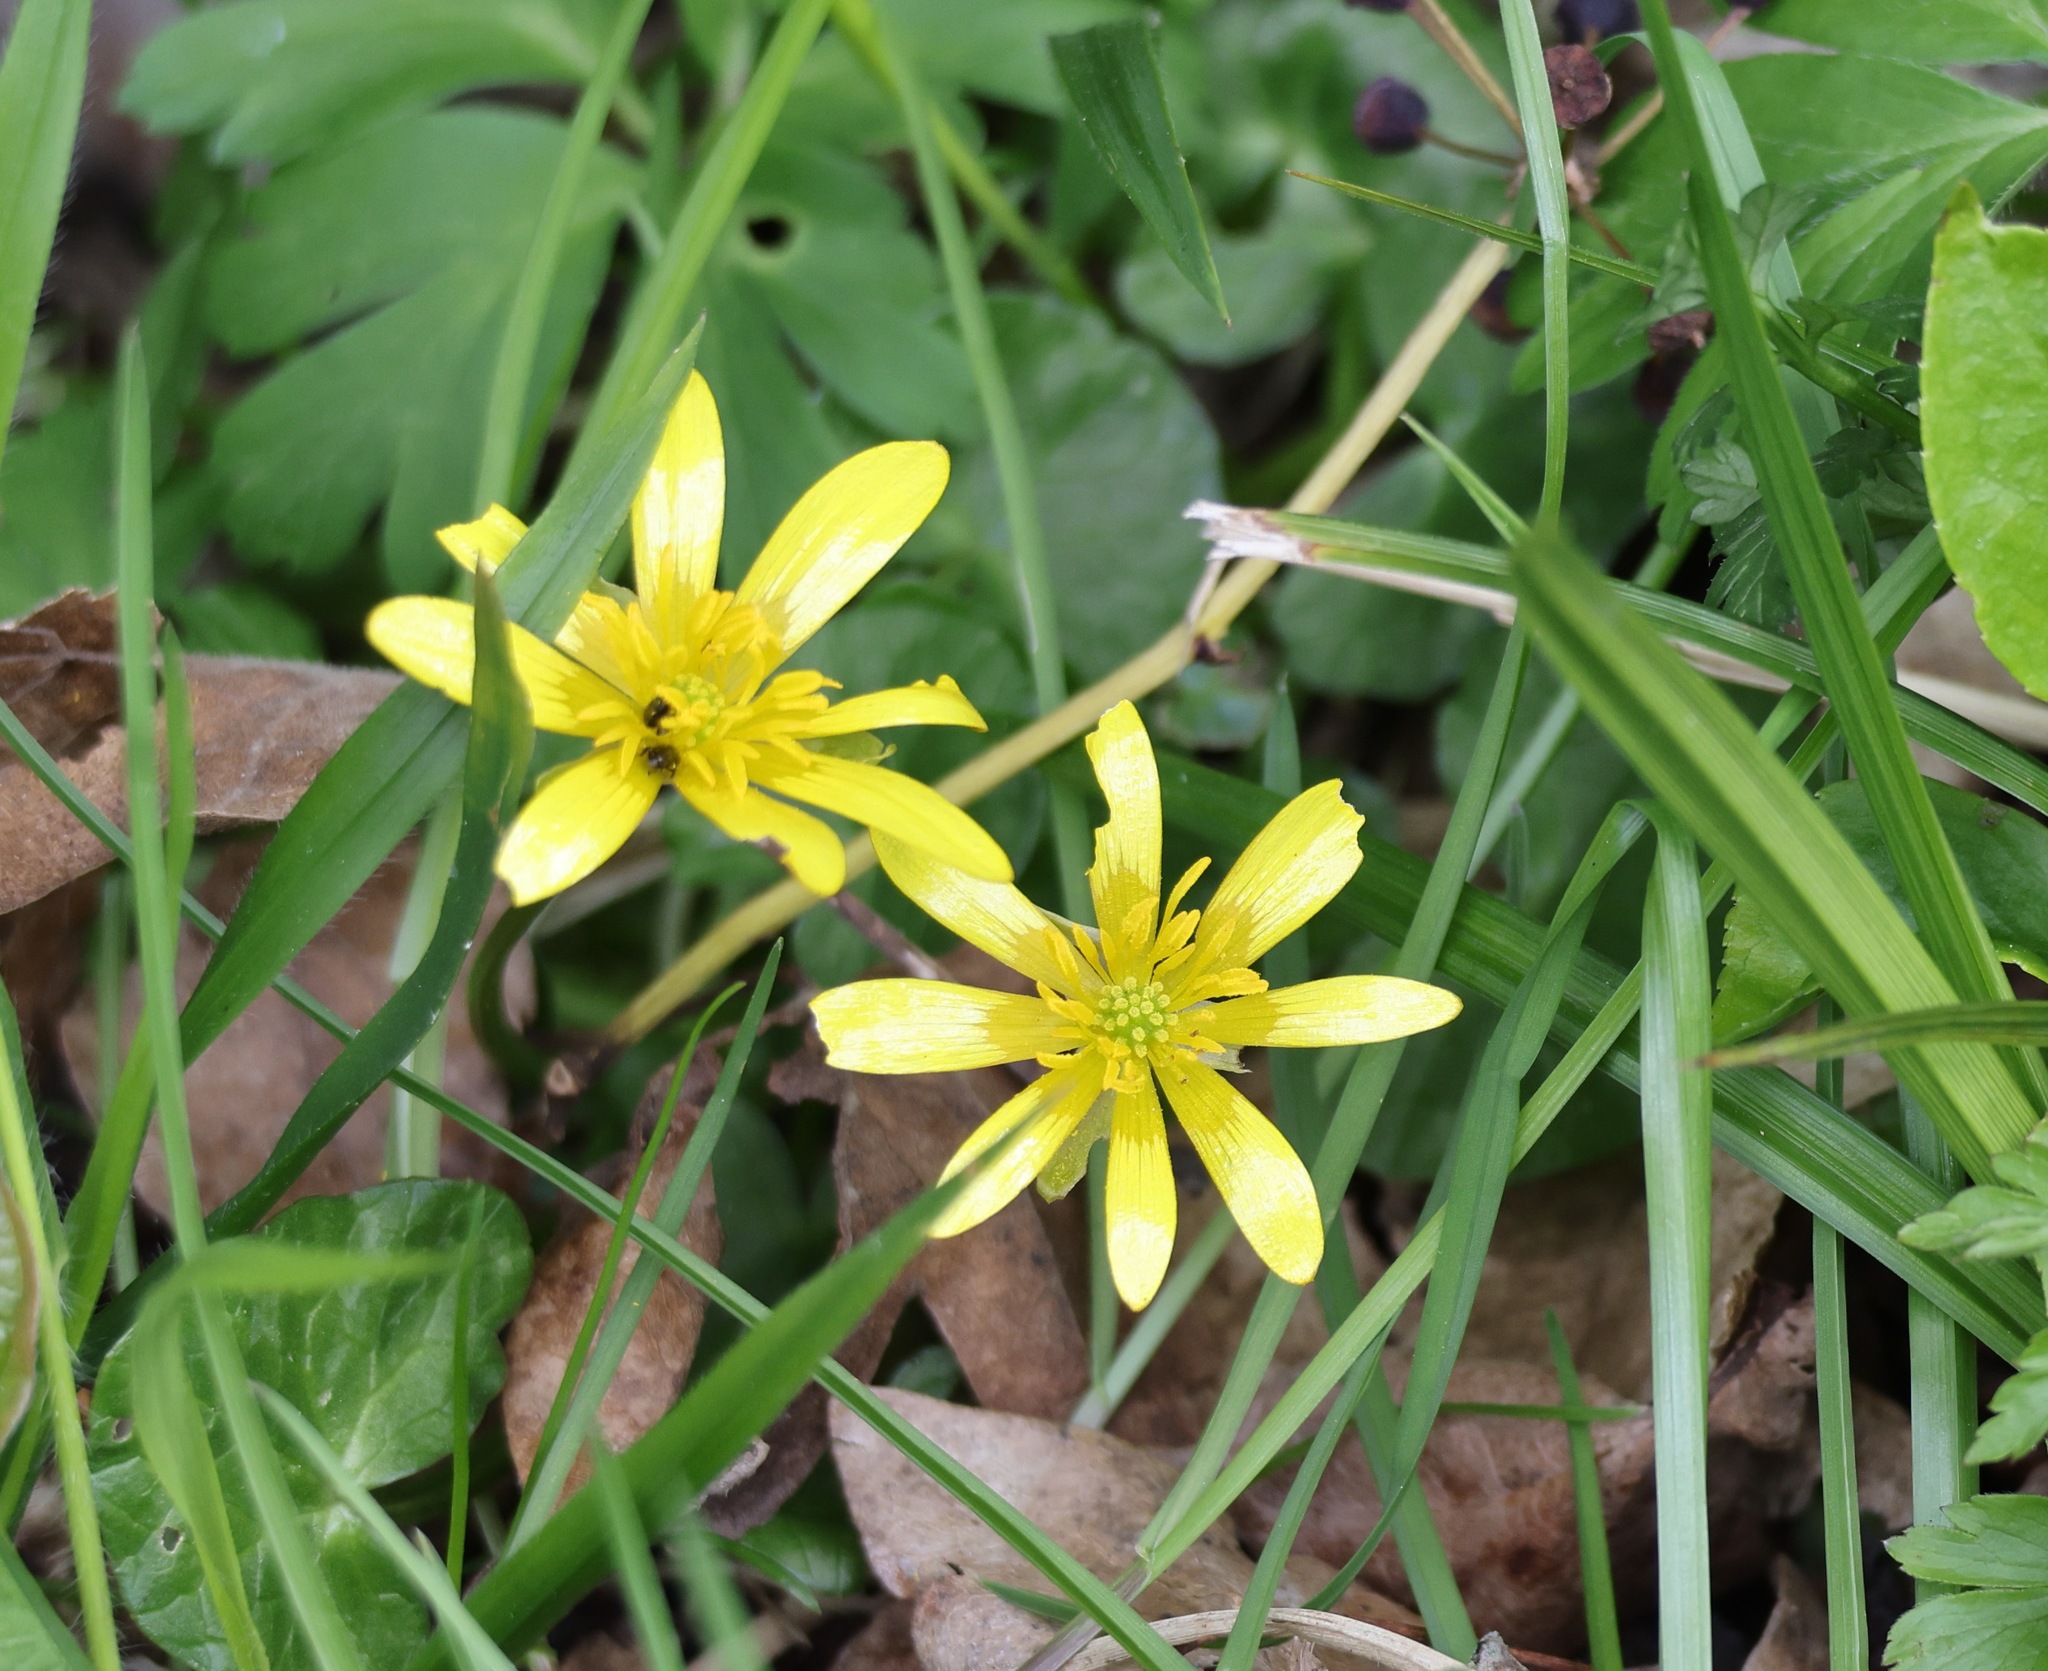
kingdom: Plantae
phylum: Tracheophyta
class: Magnoliopsida
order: Ranunculales
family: Ranunculaceae
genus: Ficaria
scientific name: Ficaria verna
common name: Lesser celandine
